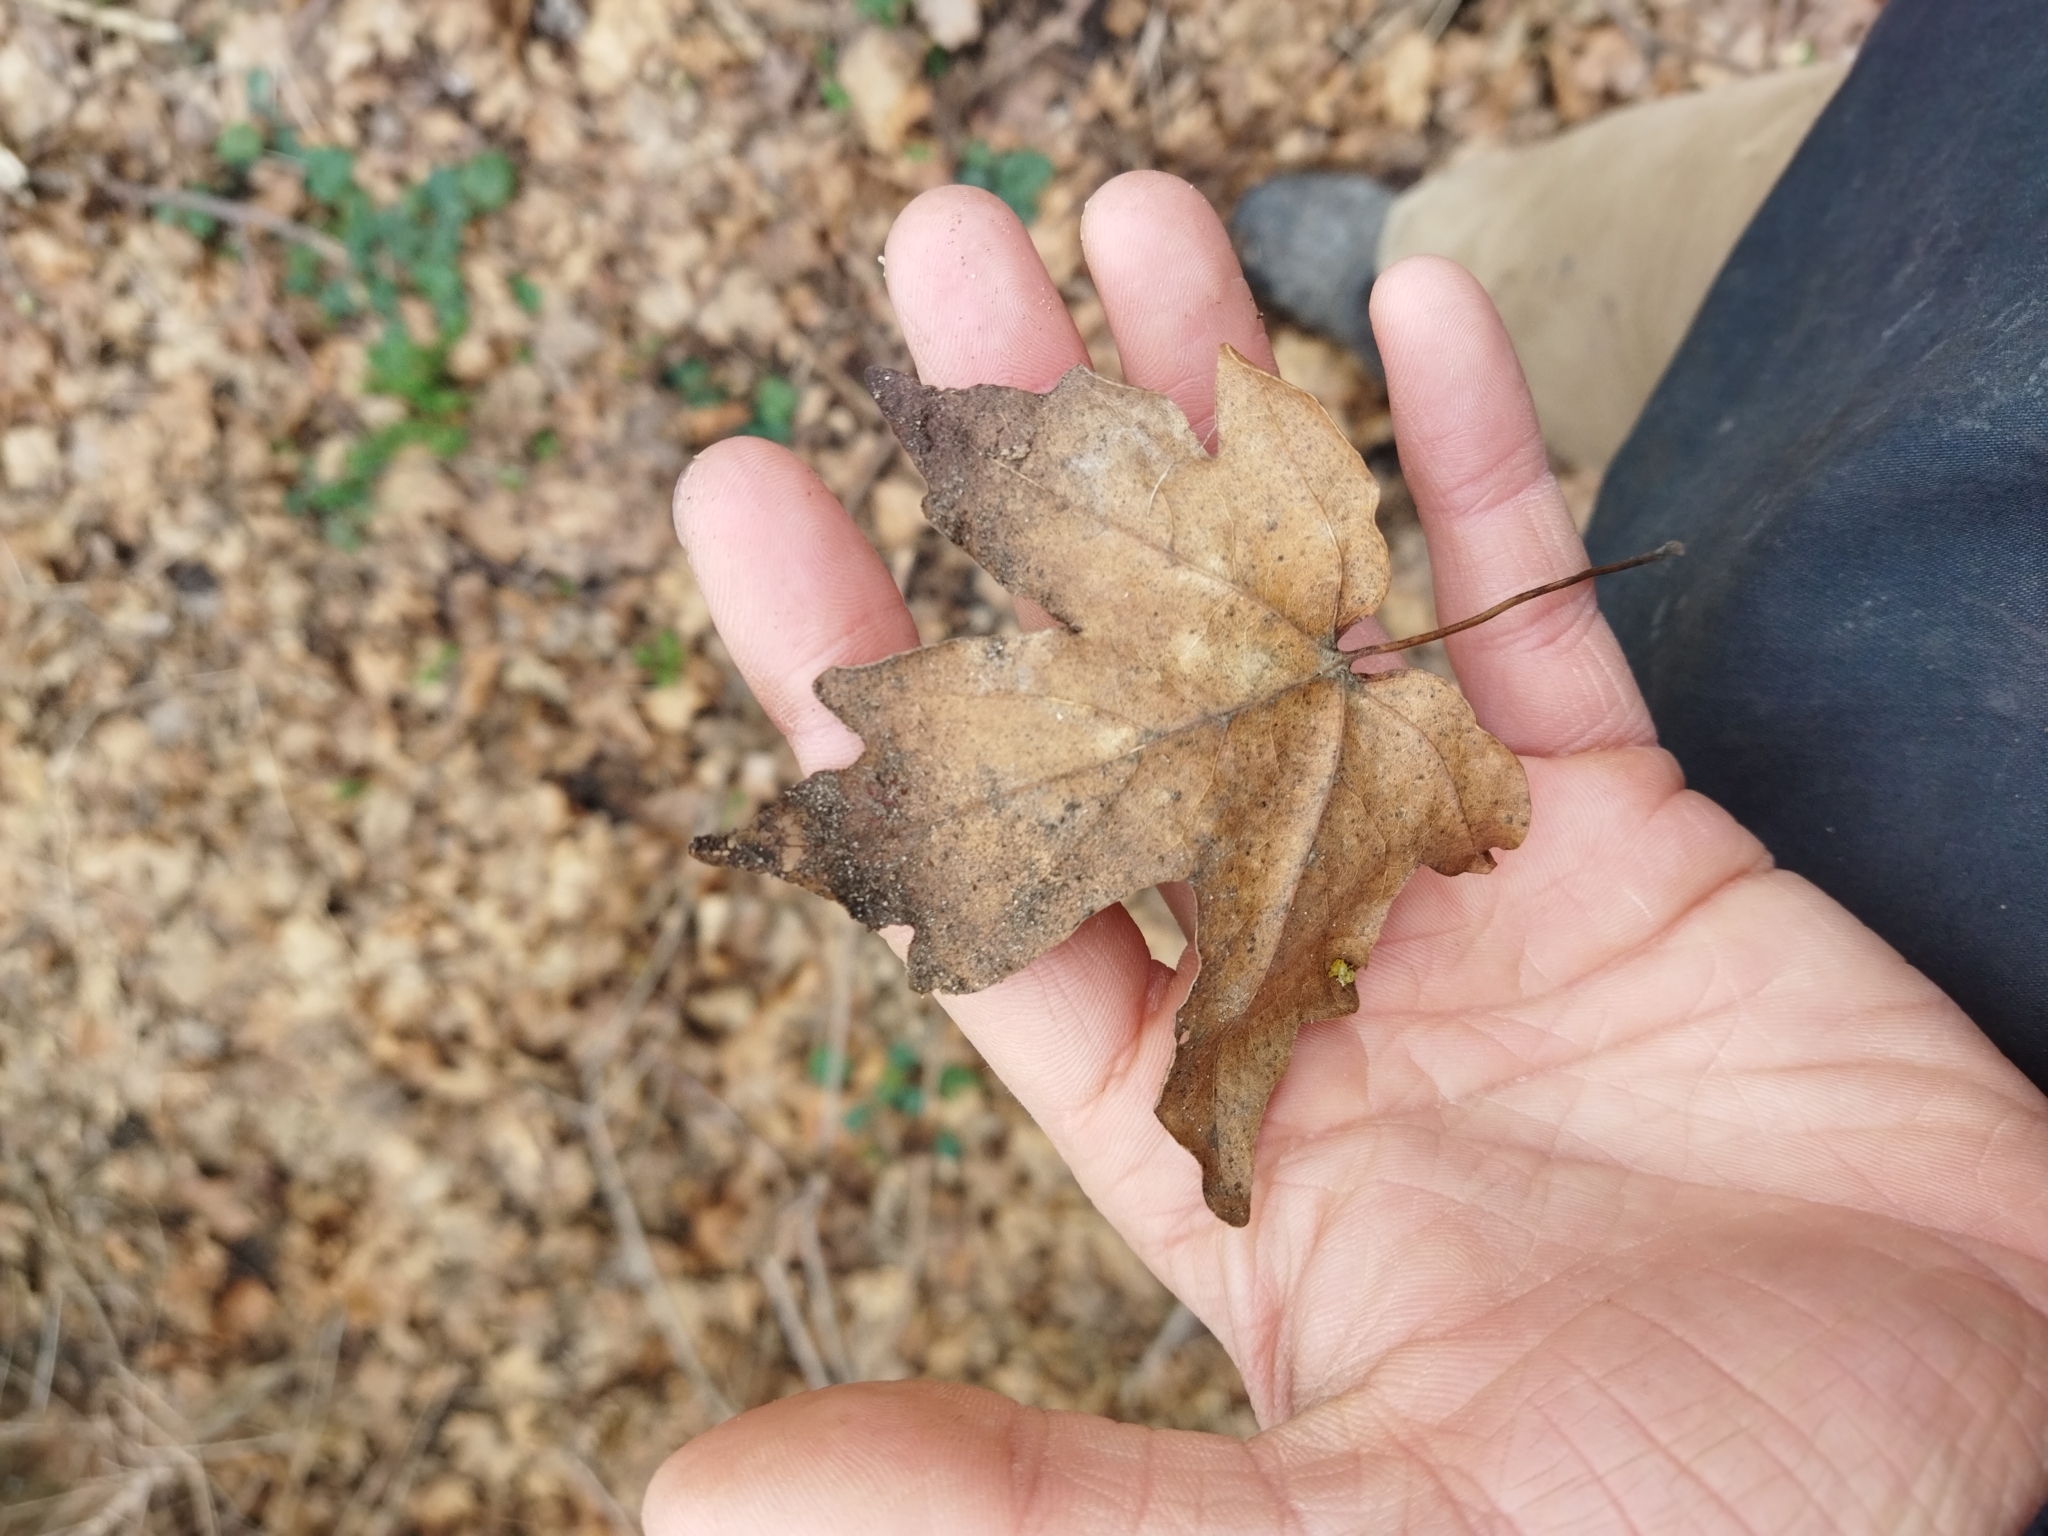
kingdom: Plantae
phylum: Tracheophyta
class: Magnoliopsida
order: Sapindales
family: Sapindaceae
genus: Acer
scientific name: Acer campestre
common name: Field maple
